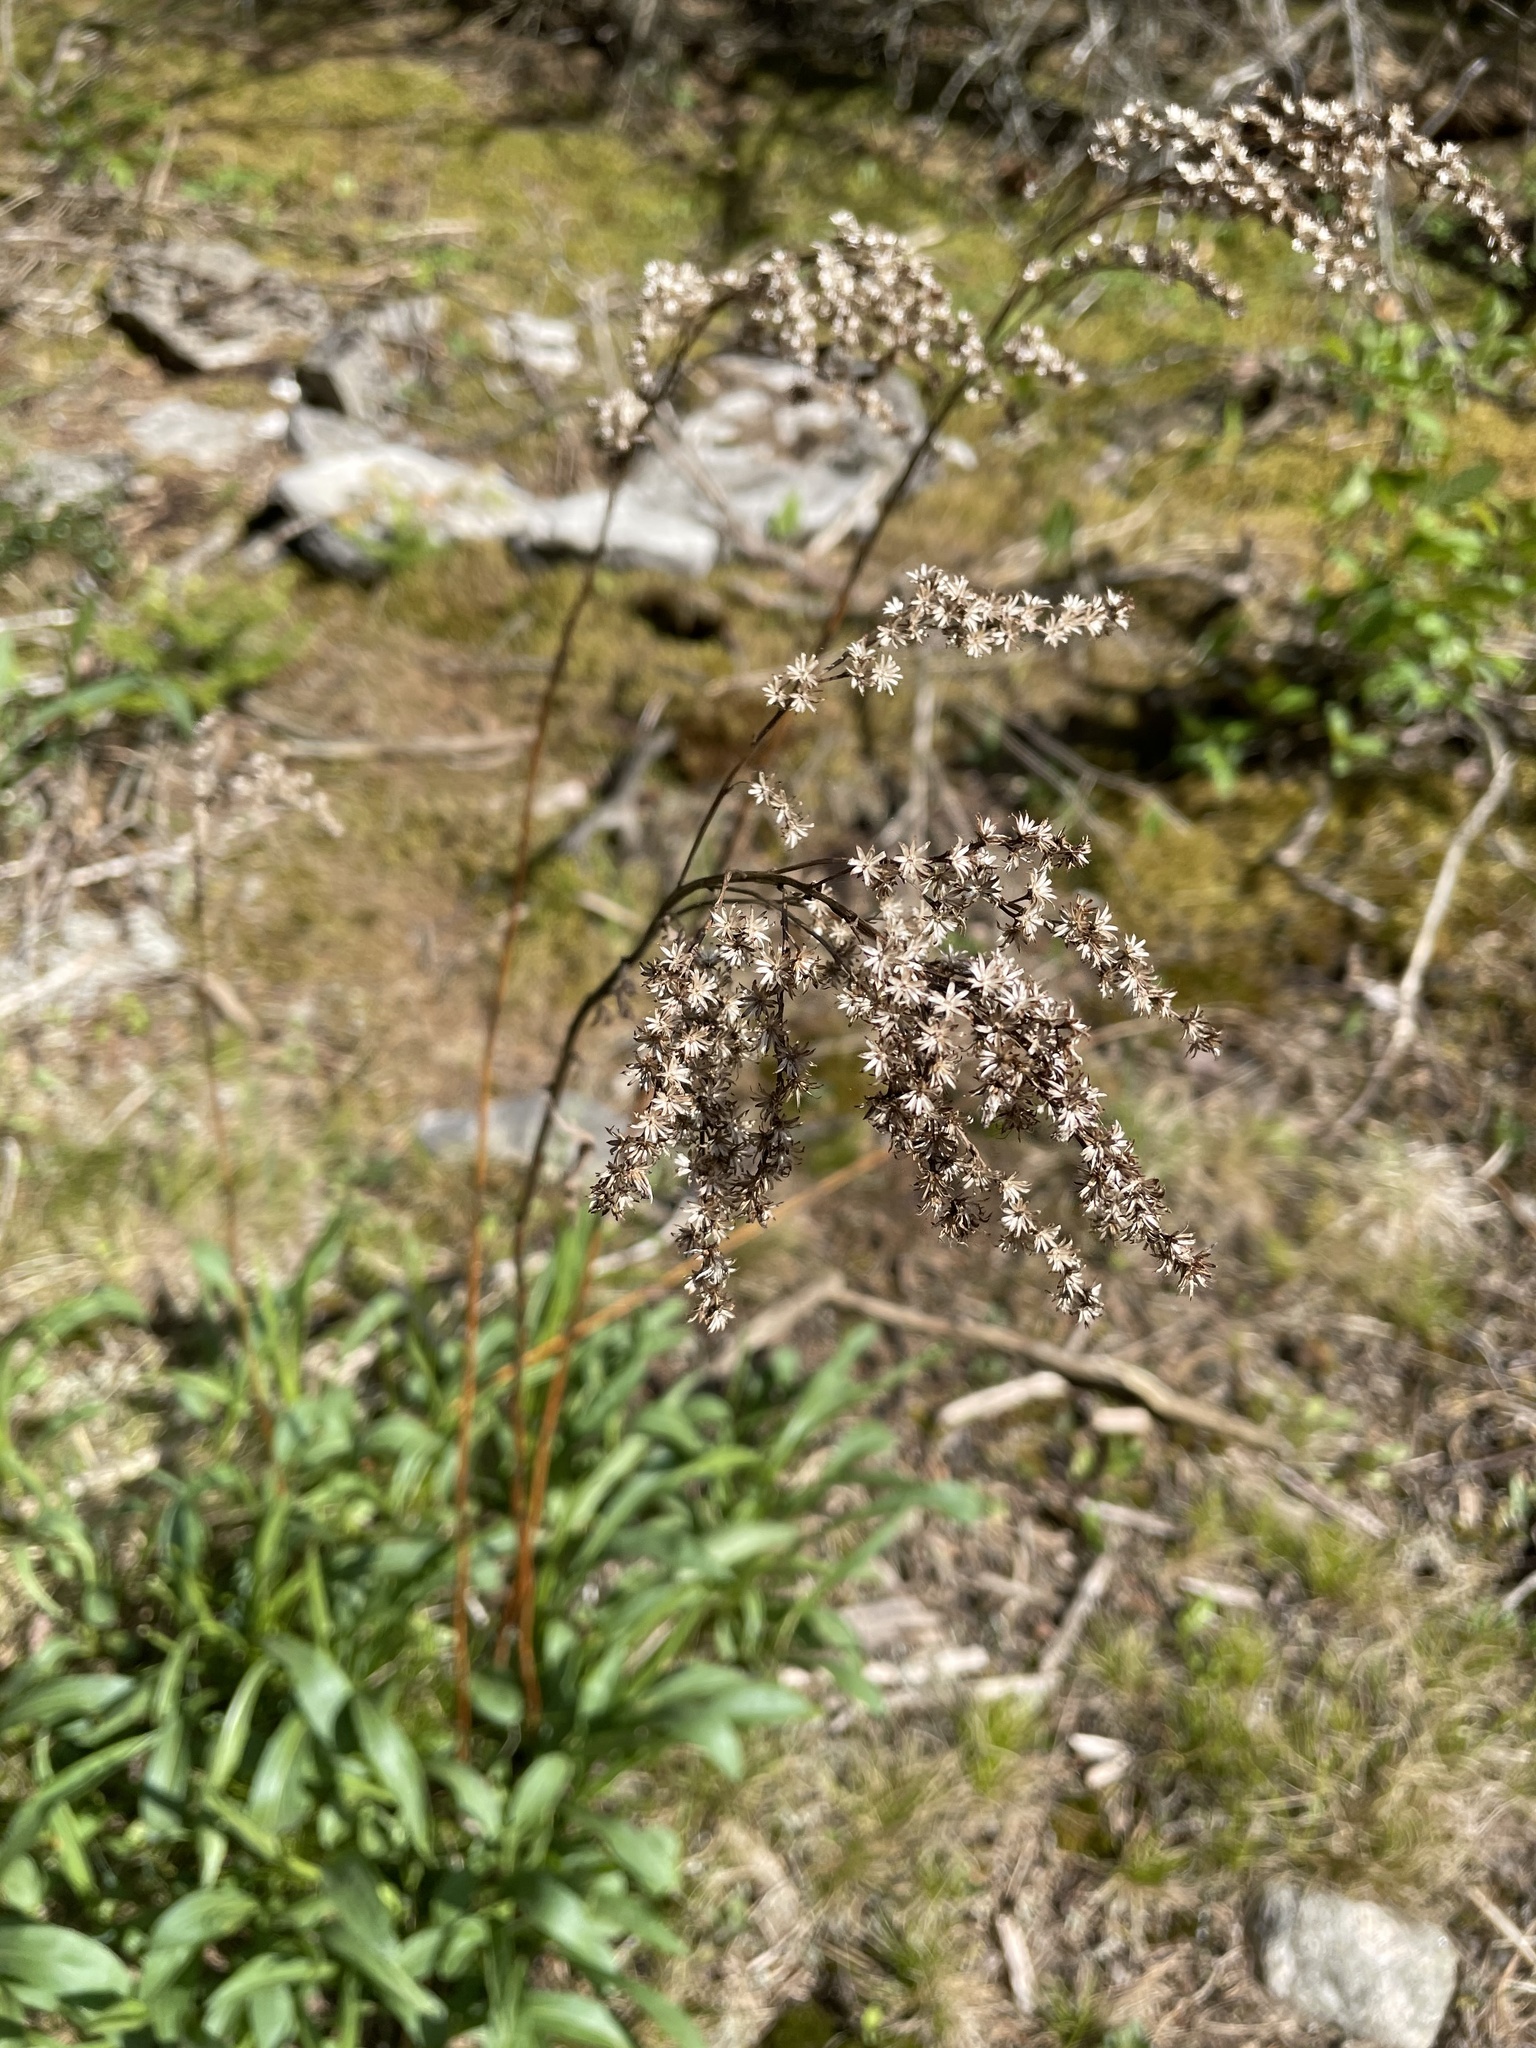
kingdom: Plantae
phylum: Tracheophyta
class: Magnoliopsida
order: Asterales
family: Asteraceae
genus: Solidago
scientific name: Solidago juncea
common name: Early goldenrod
